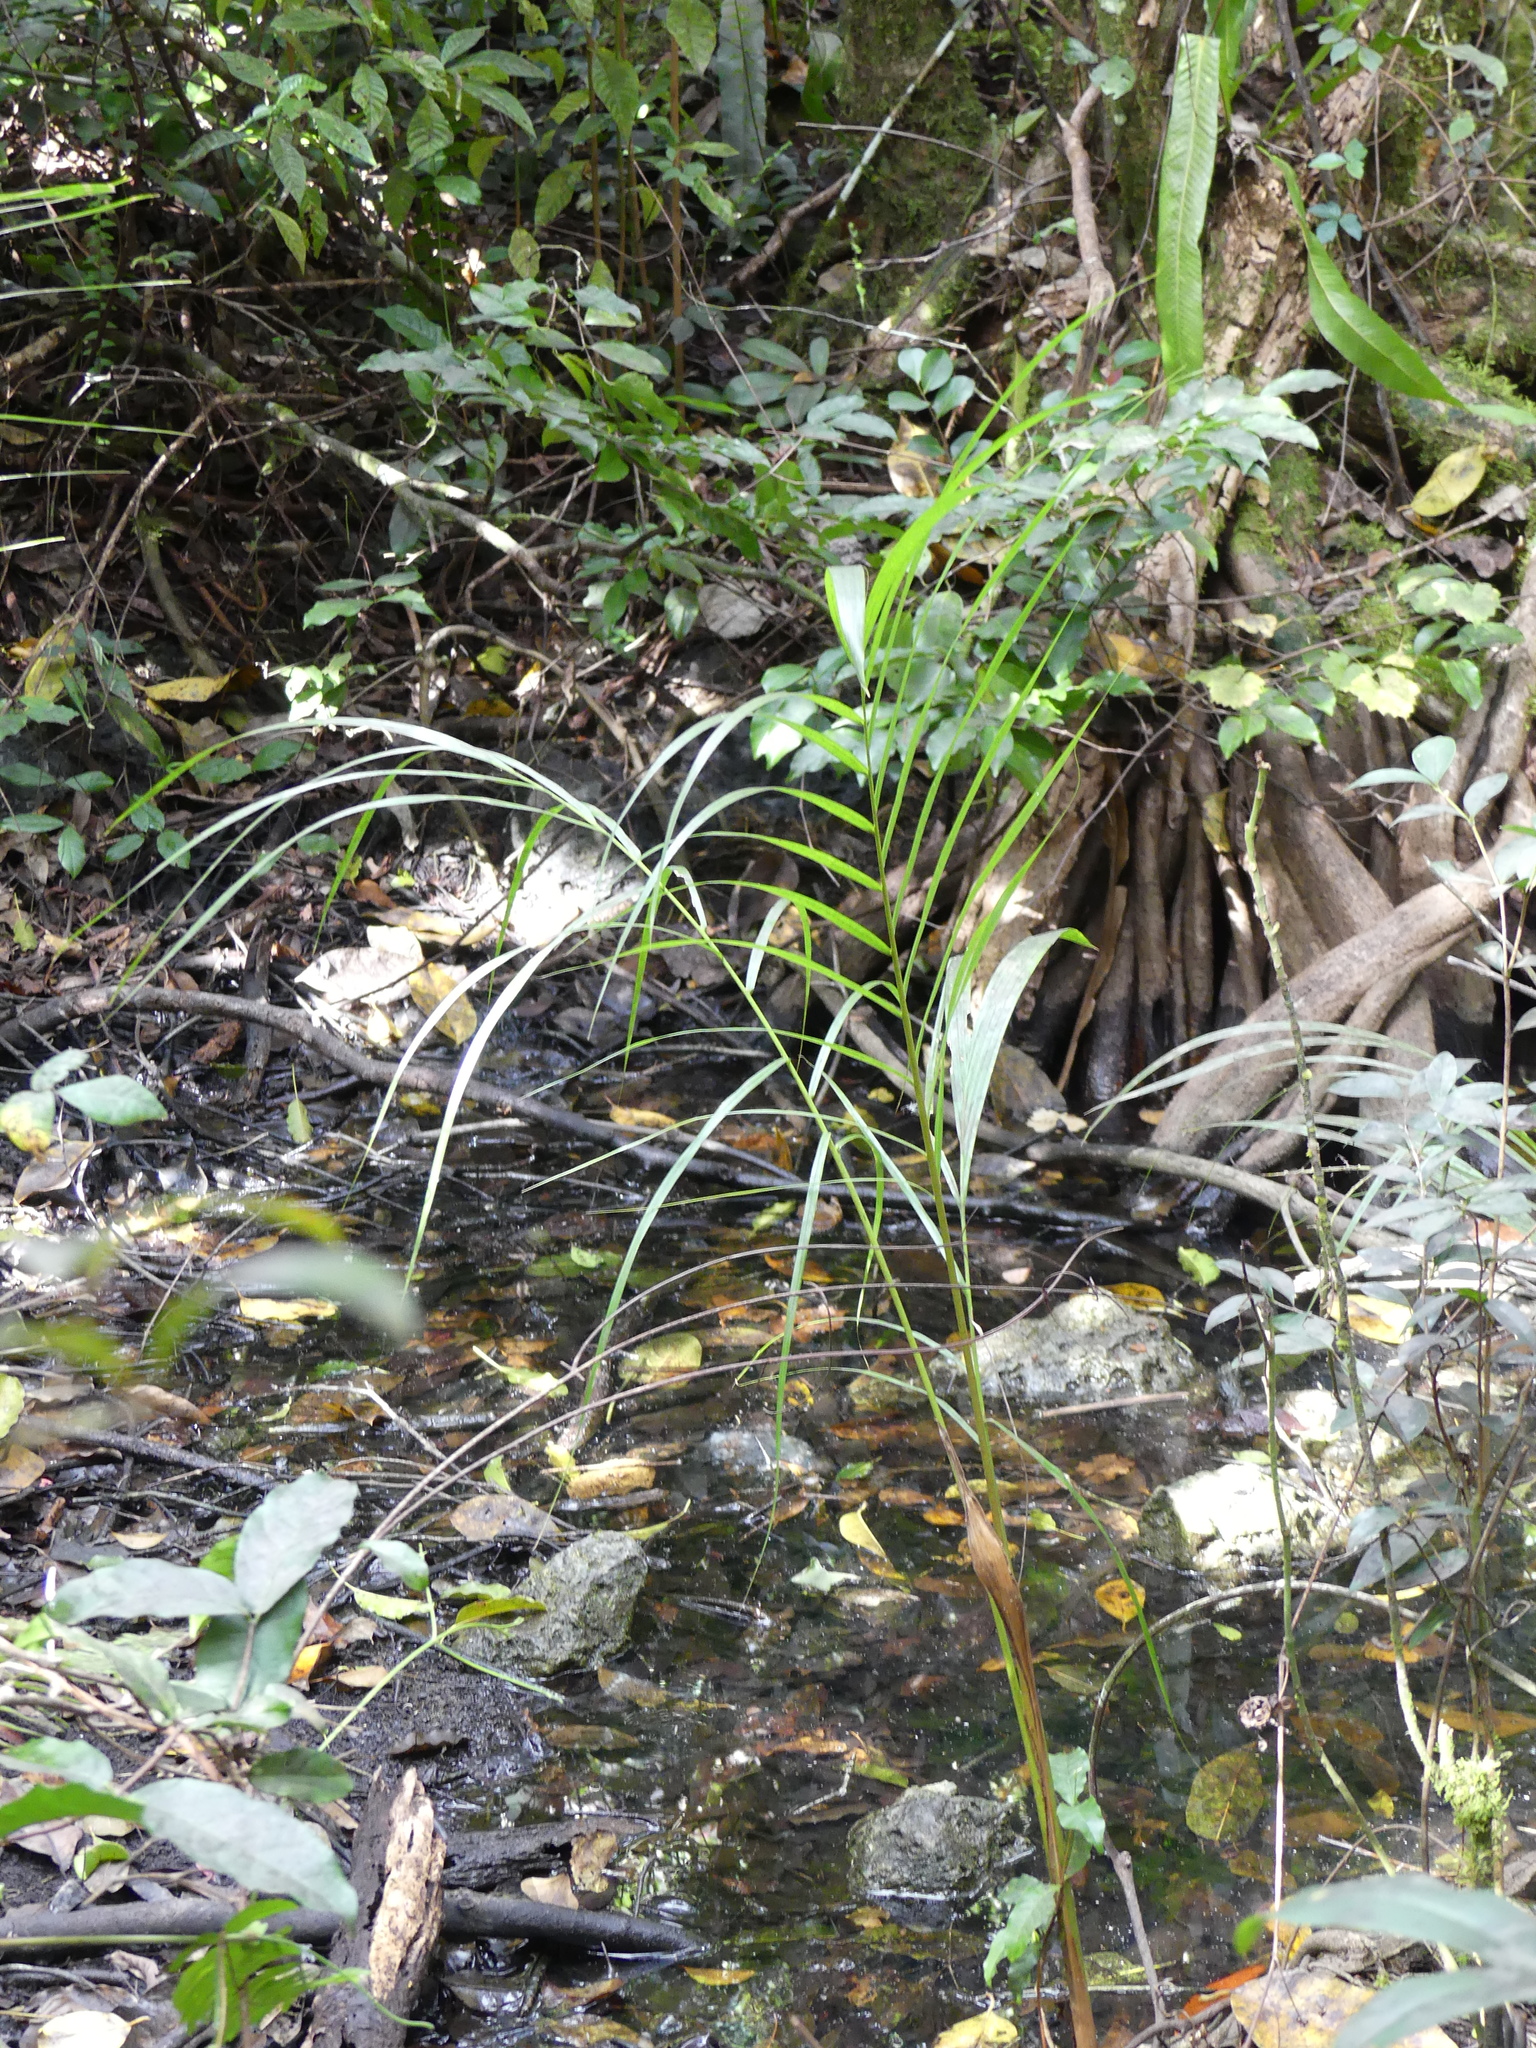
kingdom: Plantae
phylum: Tracheophyta
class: Liliopsida
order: Arecales
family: Arecaceae
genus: Roystonea
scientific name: Roystonea regia
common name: Florida royal palm
